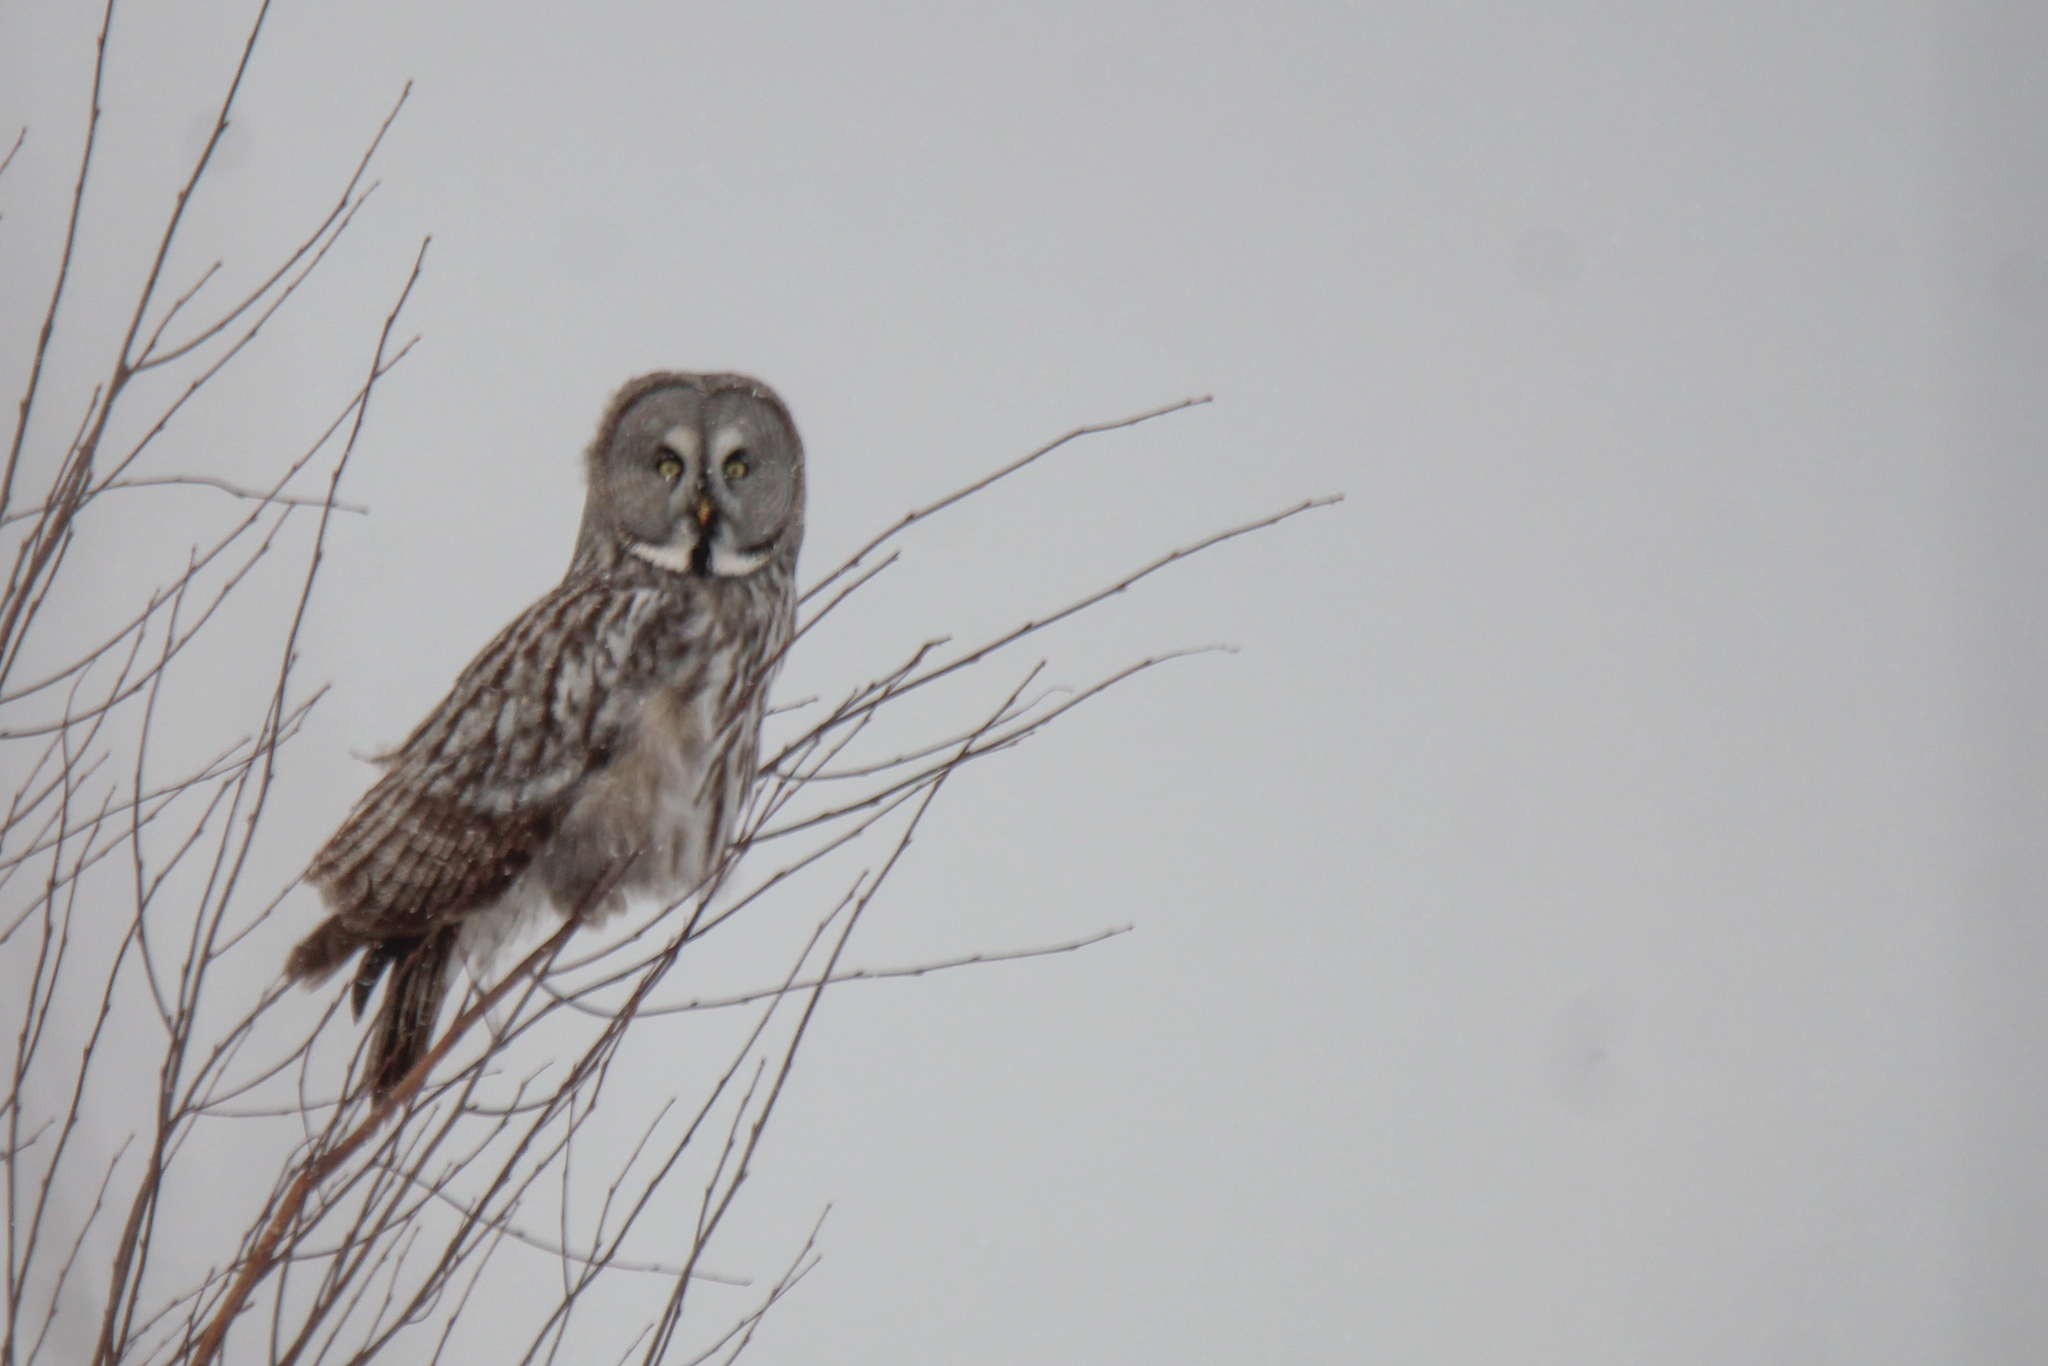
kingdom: Animalia
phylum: Chordata
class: Aves
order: Strigiformes
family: Strigidae
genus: Strix
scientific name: Strix nebulosa
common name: Great grey owl
